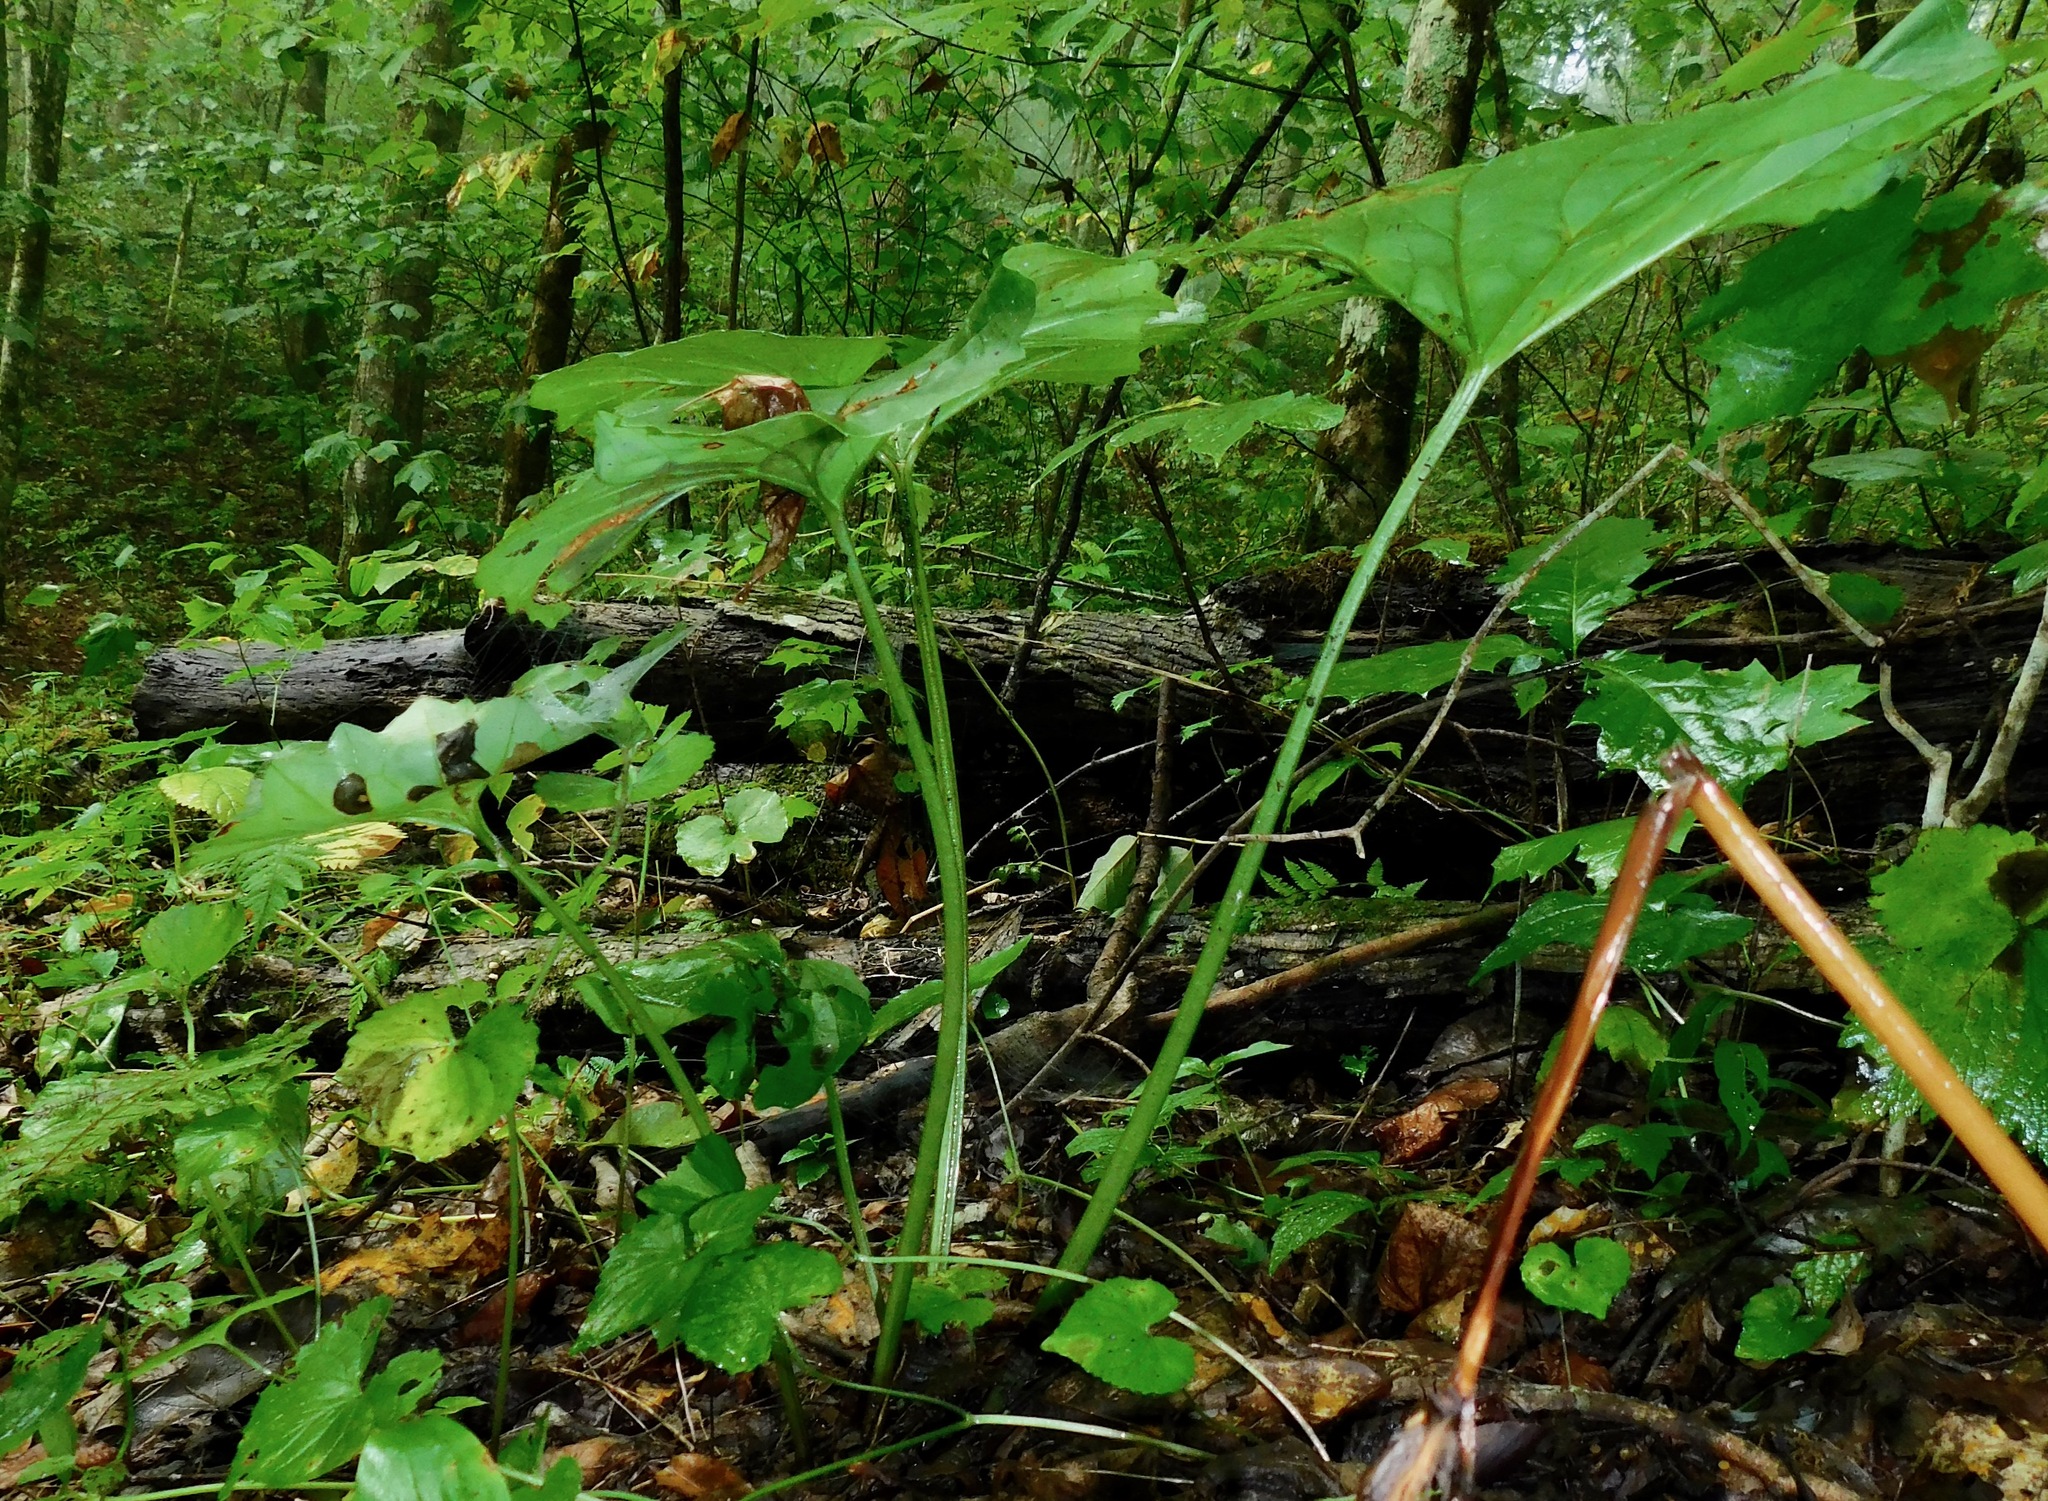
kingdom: Plantae
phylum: Tracheophyta
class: Magnoliopsida
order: Asterales
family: Asteraceae
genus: Arnoglossum
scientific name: Arnoglossum reniforme
